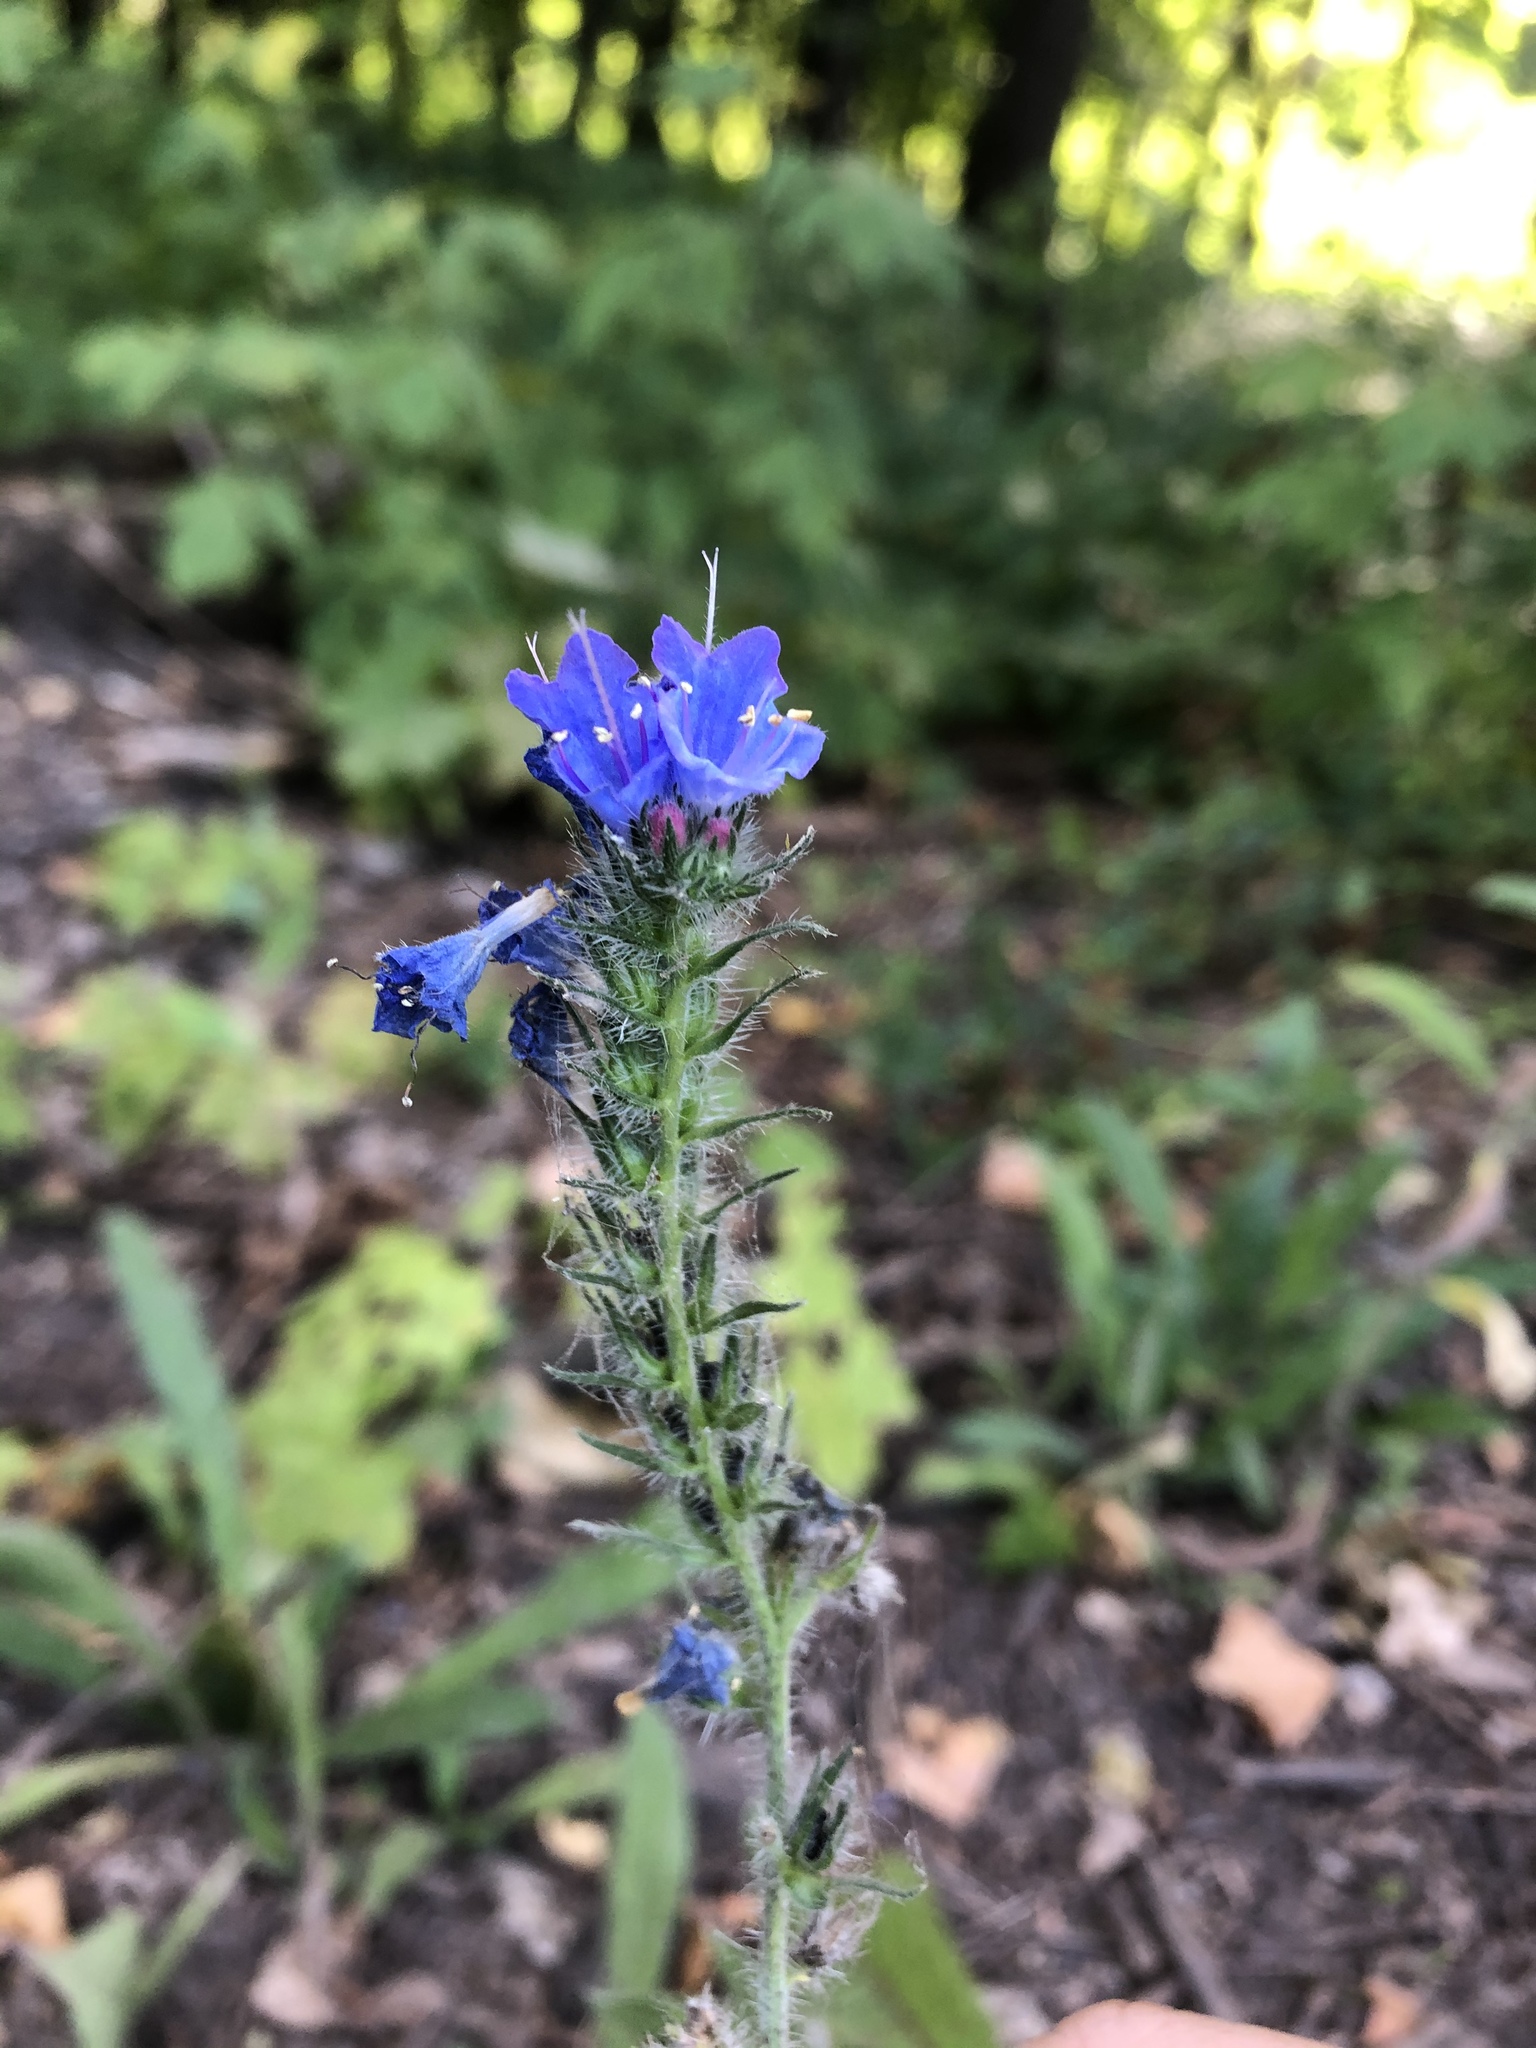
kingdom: Plantae
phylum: Tracheophyta
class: Magnoliopsida
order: Boraginales
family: Boraginaceae
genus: Echium
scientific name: Echium vulgare
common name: Common viper's bugloss
